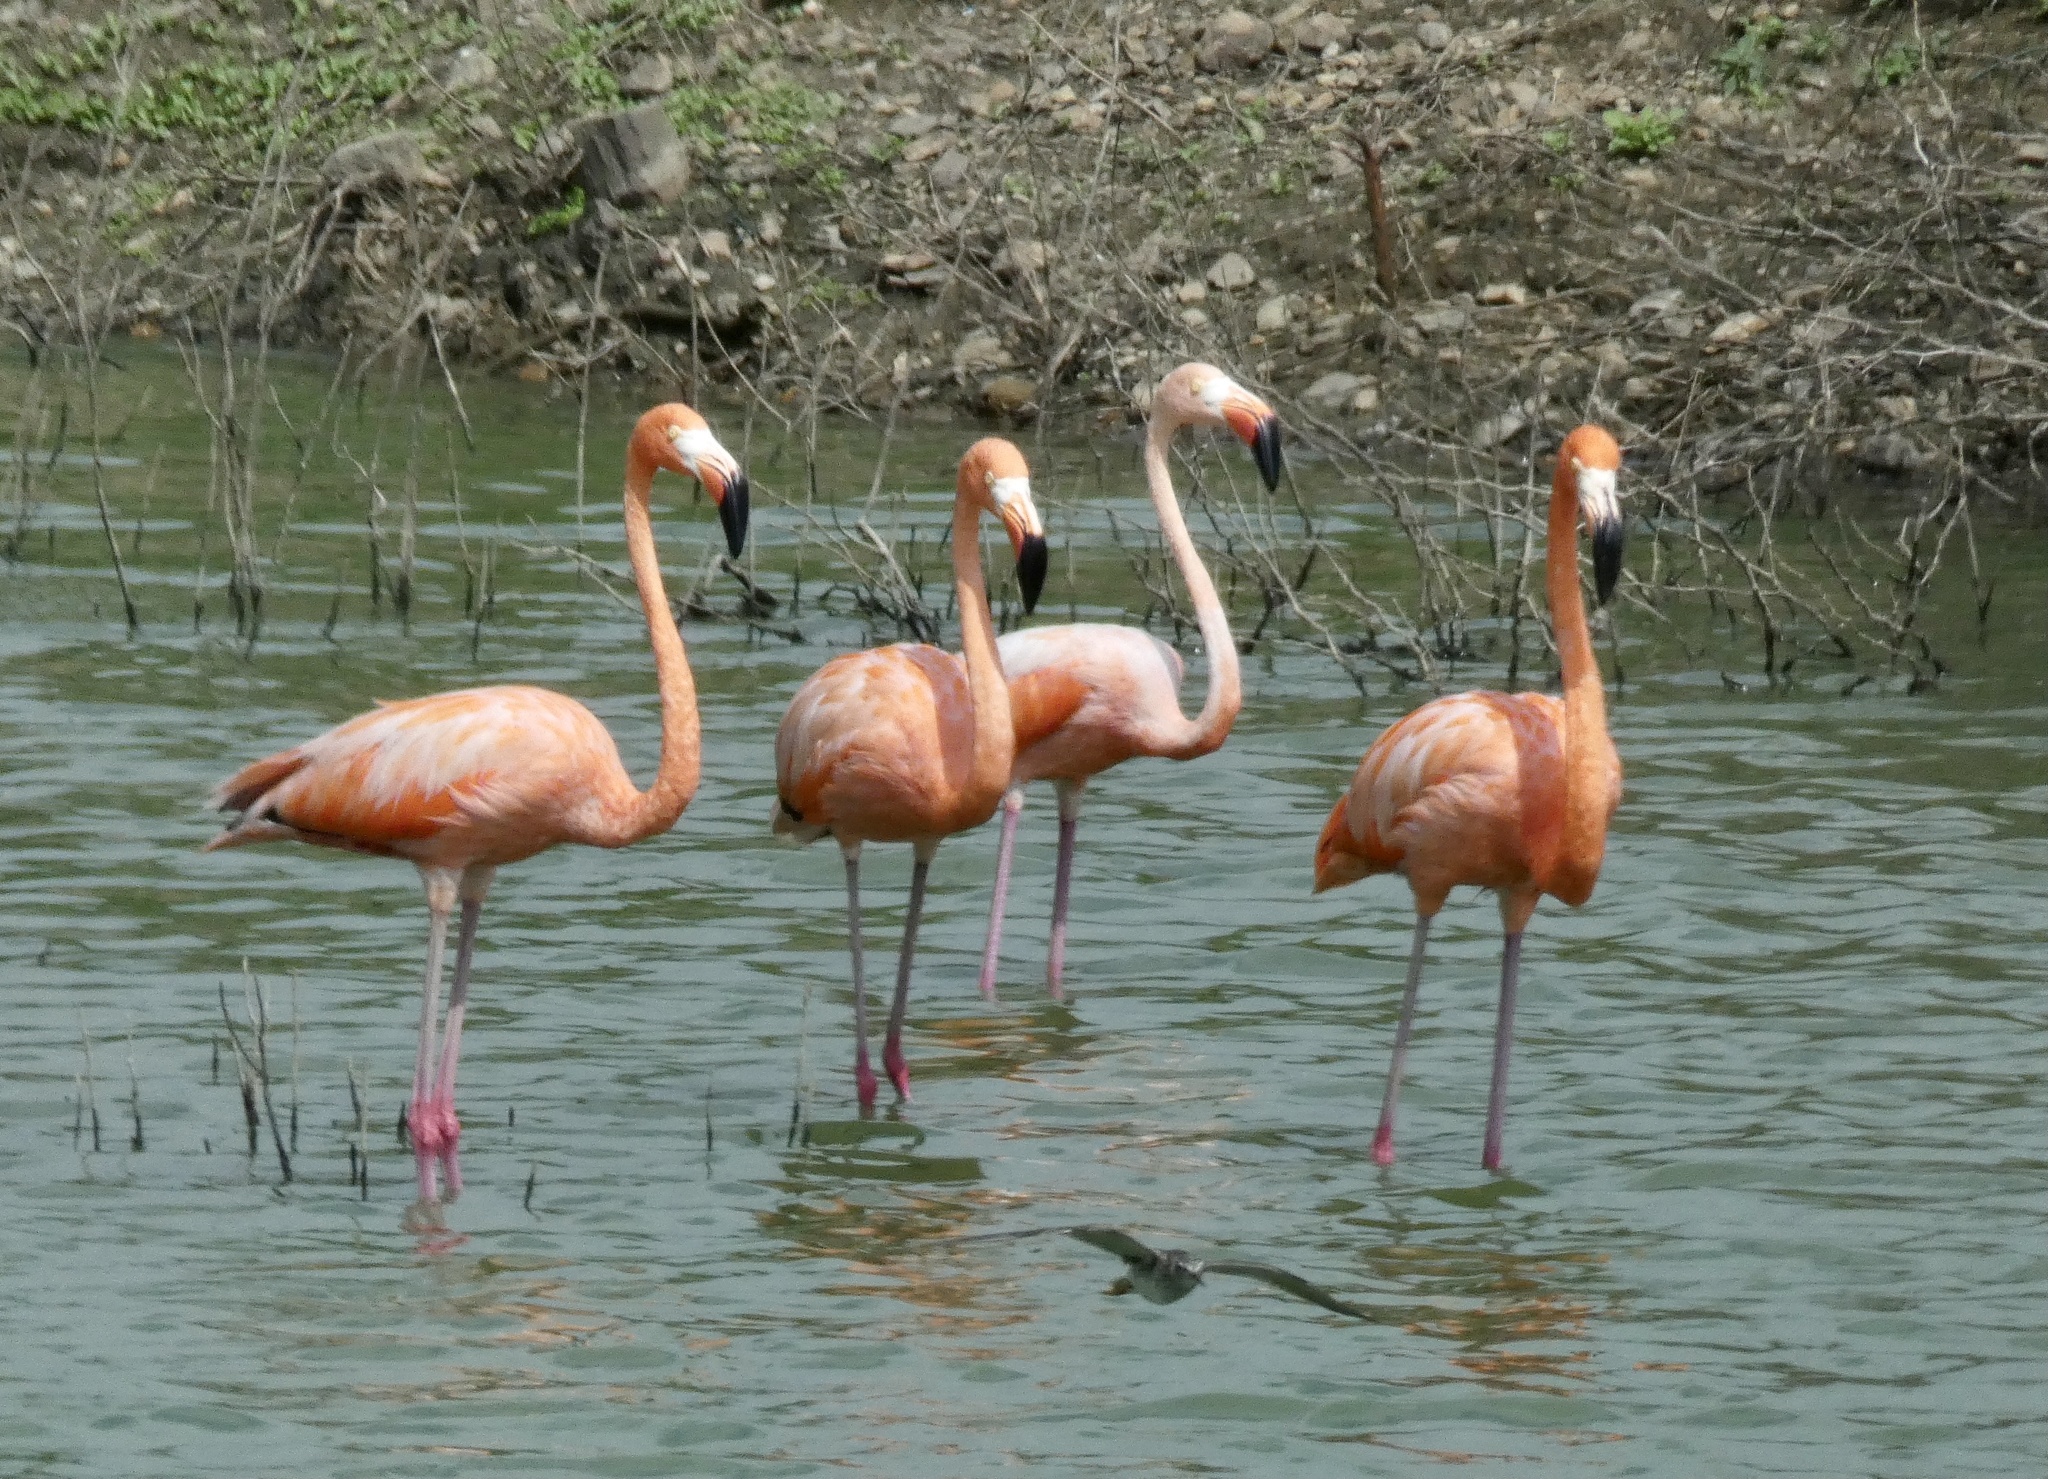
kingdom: Animalia
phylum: Chordata
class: Aves
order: Phoenicopteriformes
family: Phoenicopteridae
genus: Phoenicopterus
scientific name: Phoenicopterus ruber
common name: American flamingo
